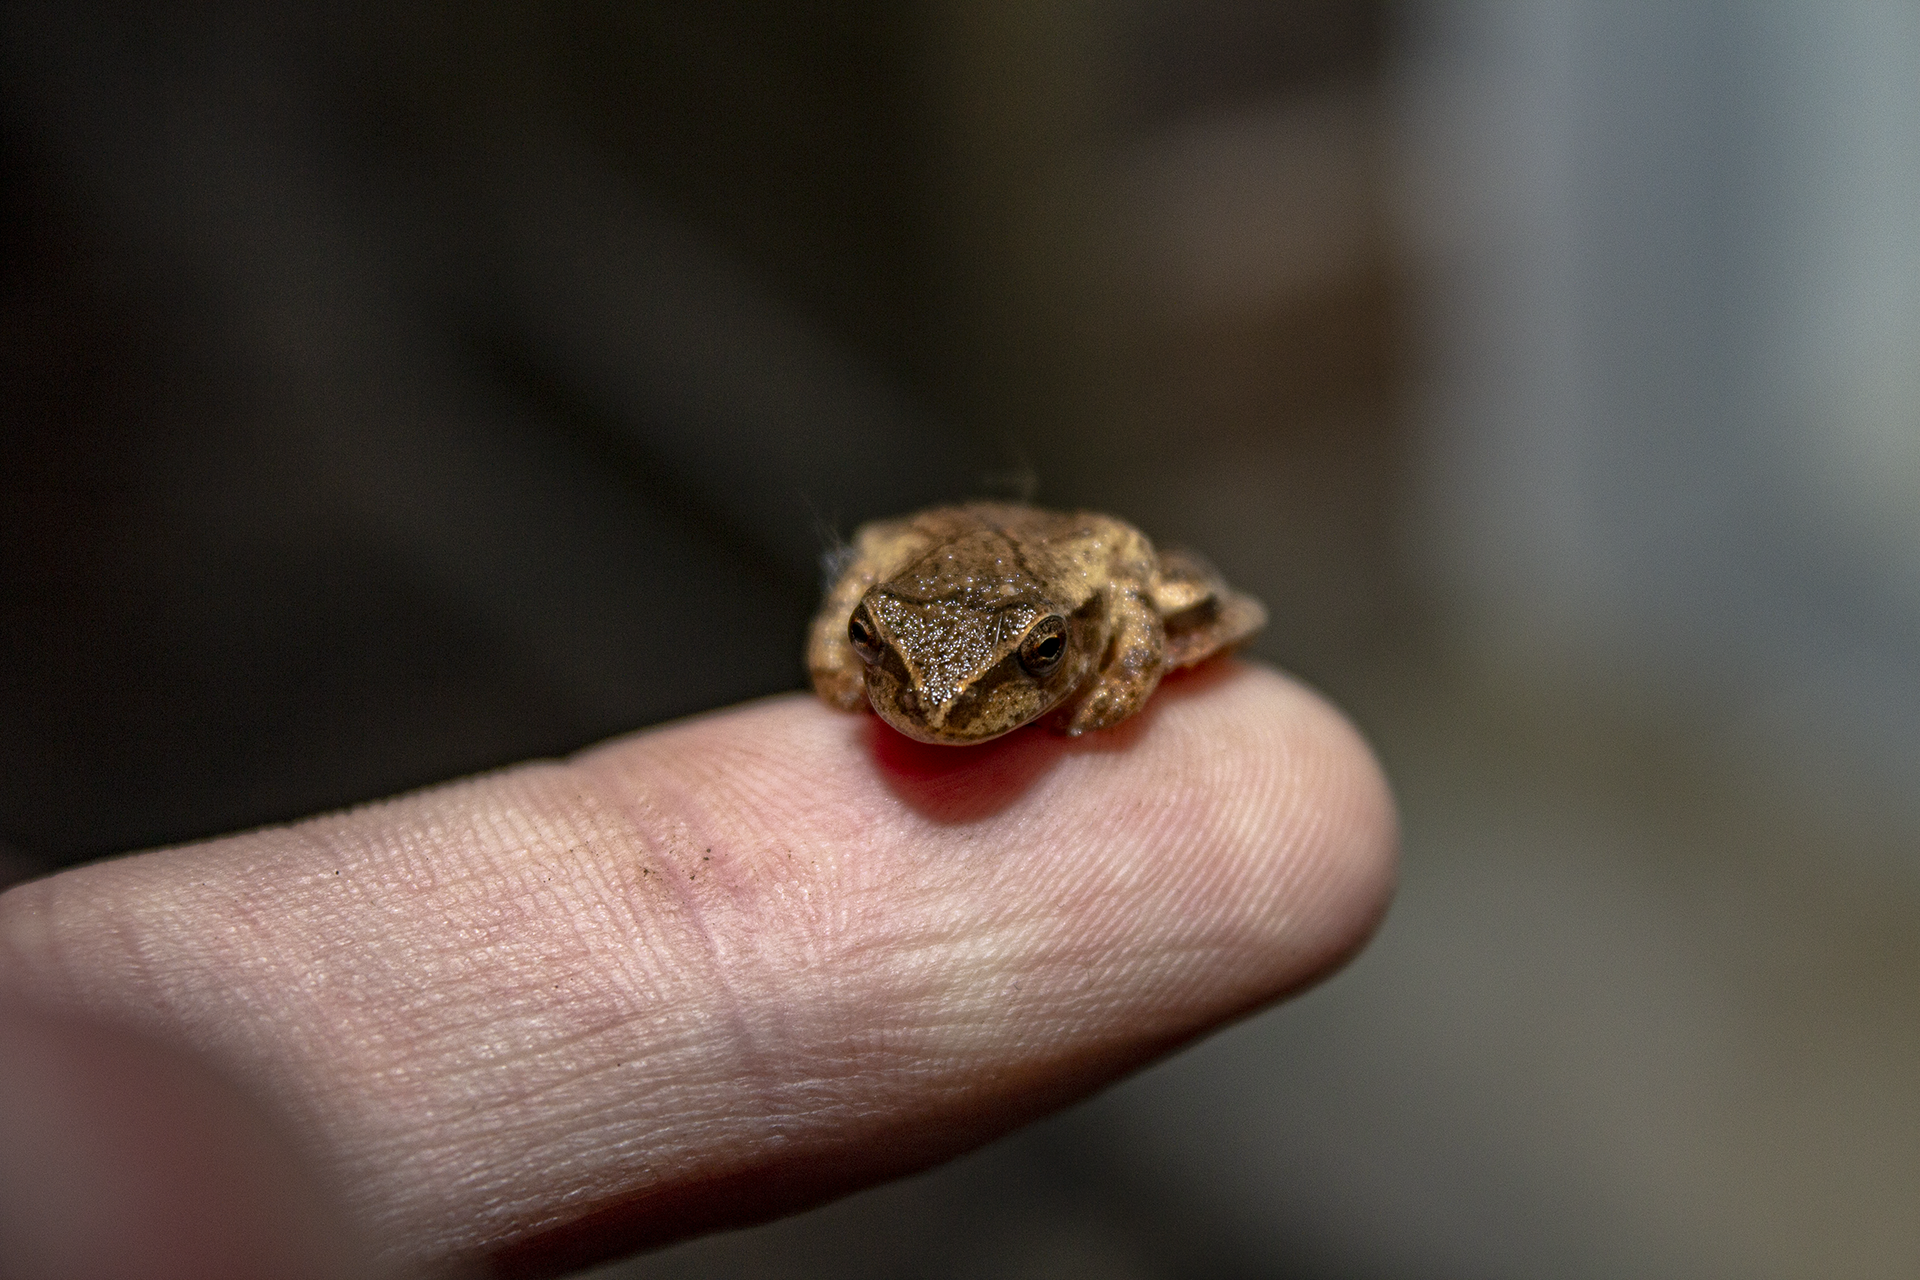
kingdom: Animalia
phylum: Chordata
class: Amphibia
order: Anura
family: Hylidae
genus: Pseudacris
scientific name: Pseudacris crucifer
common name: Spring peeper
